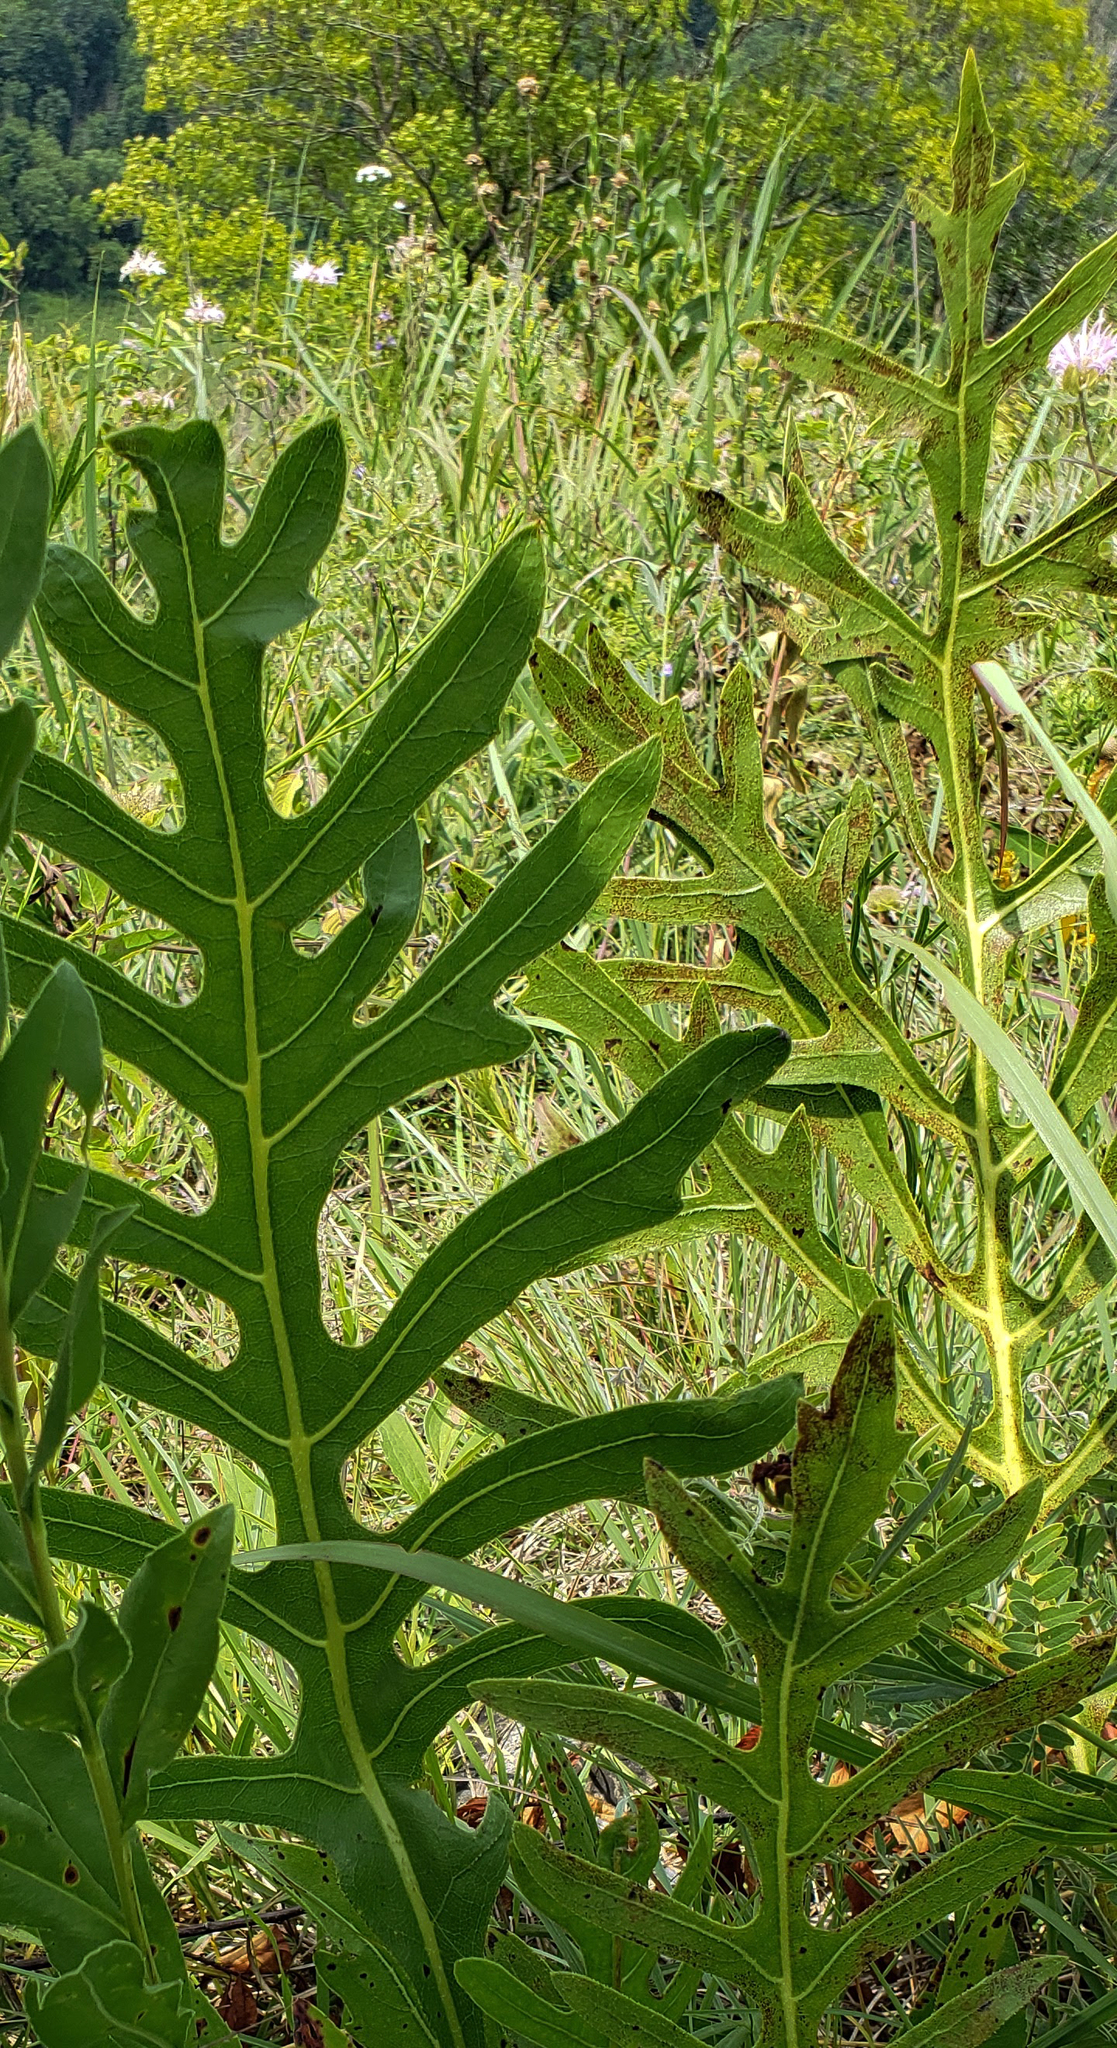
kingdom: Plantae
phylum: Tracheophyta
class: Magnoliopsida
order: Asterales
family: Asteraceae
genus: Silphium
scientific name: Silphium laciniatum
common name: Polarplant
